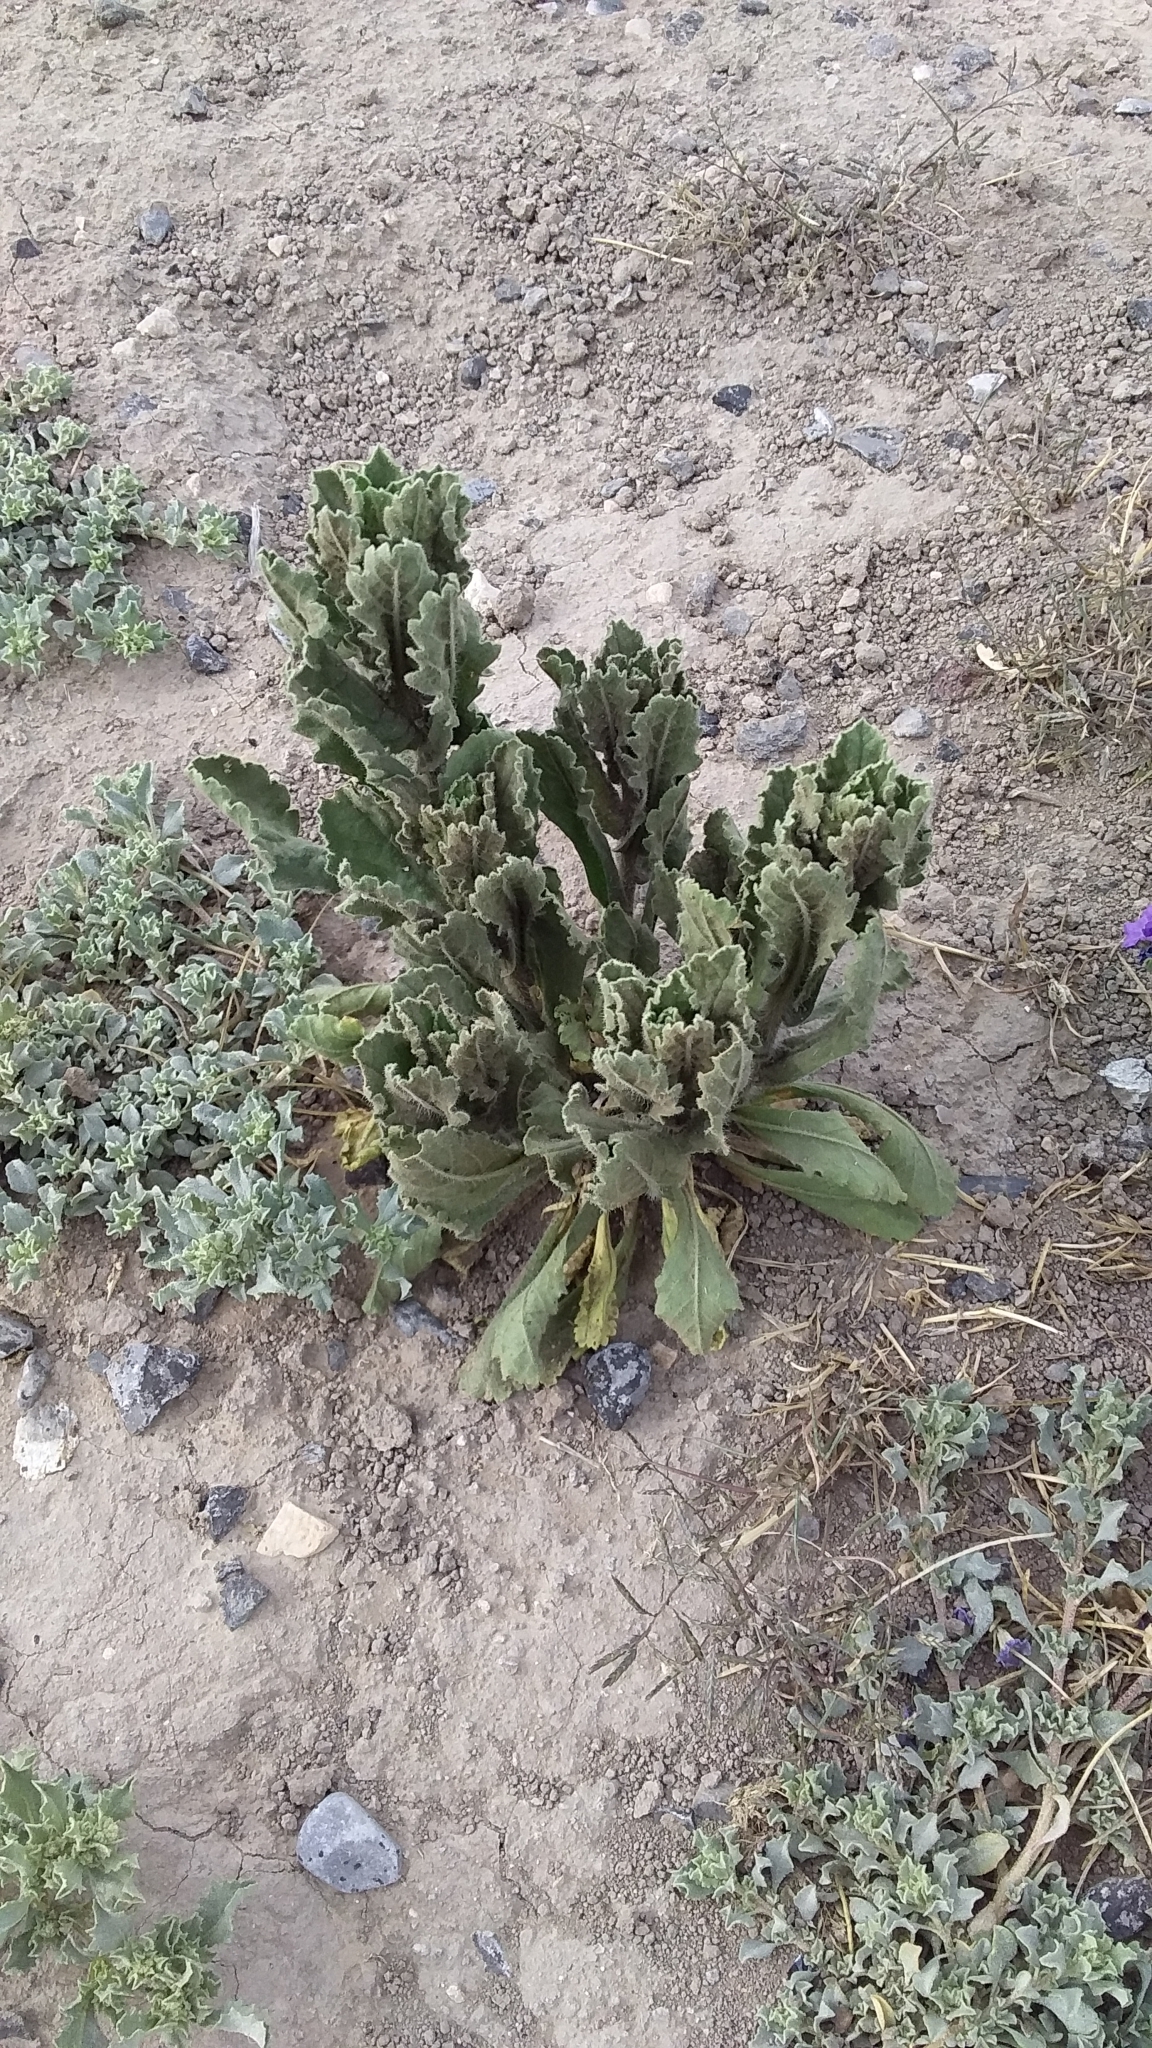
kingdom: Plantae
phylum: Tracheophyta
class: Magnoliopsida
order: Asterales
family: Asteraceae
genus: Laennecia
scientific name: Laennecia coulteri
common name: Coulter's woolwort
